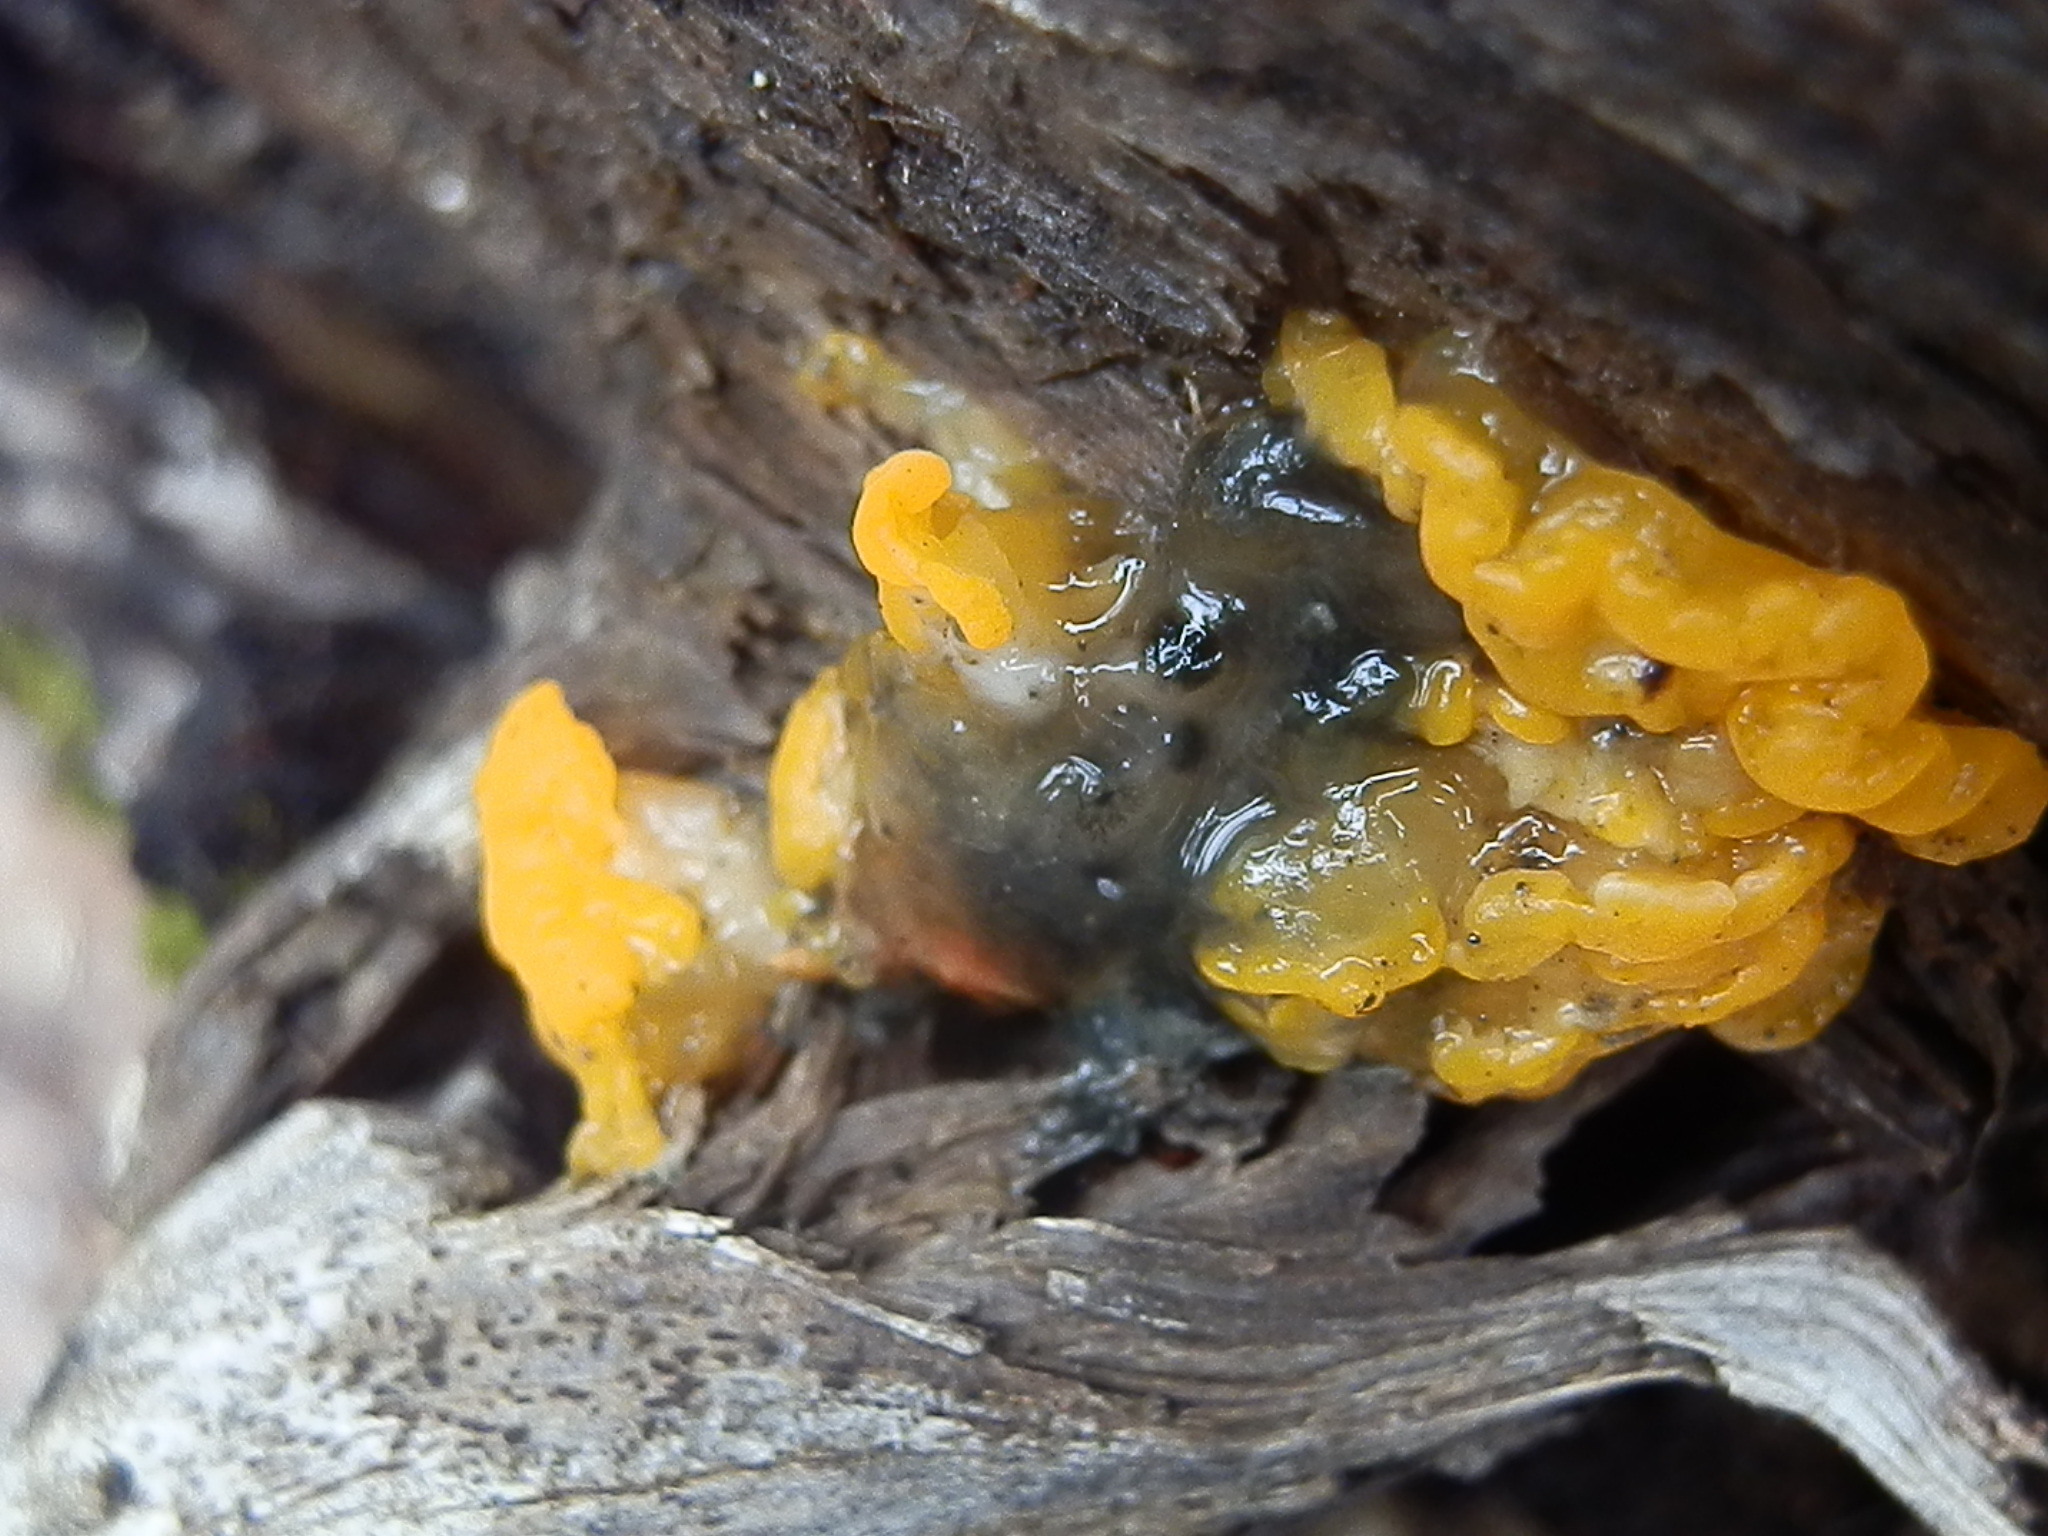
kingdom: Fungi
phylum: Basidiomycota
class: Dacrymycetes
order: Dacrymycetales
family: Dacrymycetaceae
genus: Dacrymyces
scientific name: Dacrymyces dictyosporus
